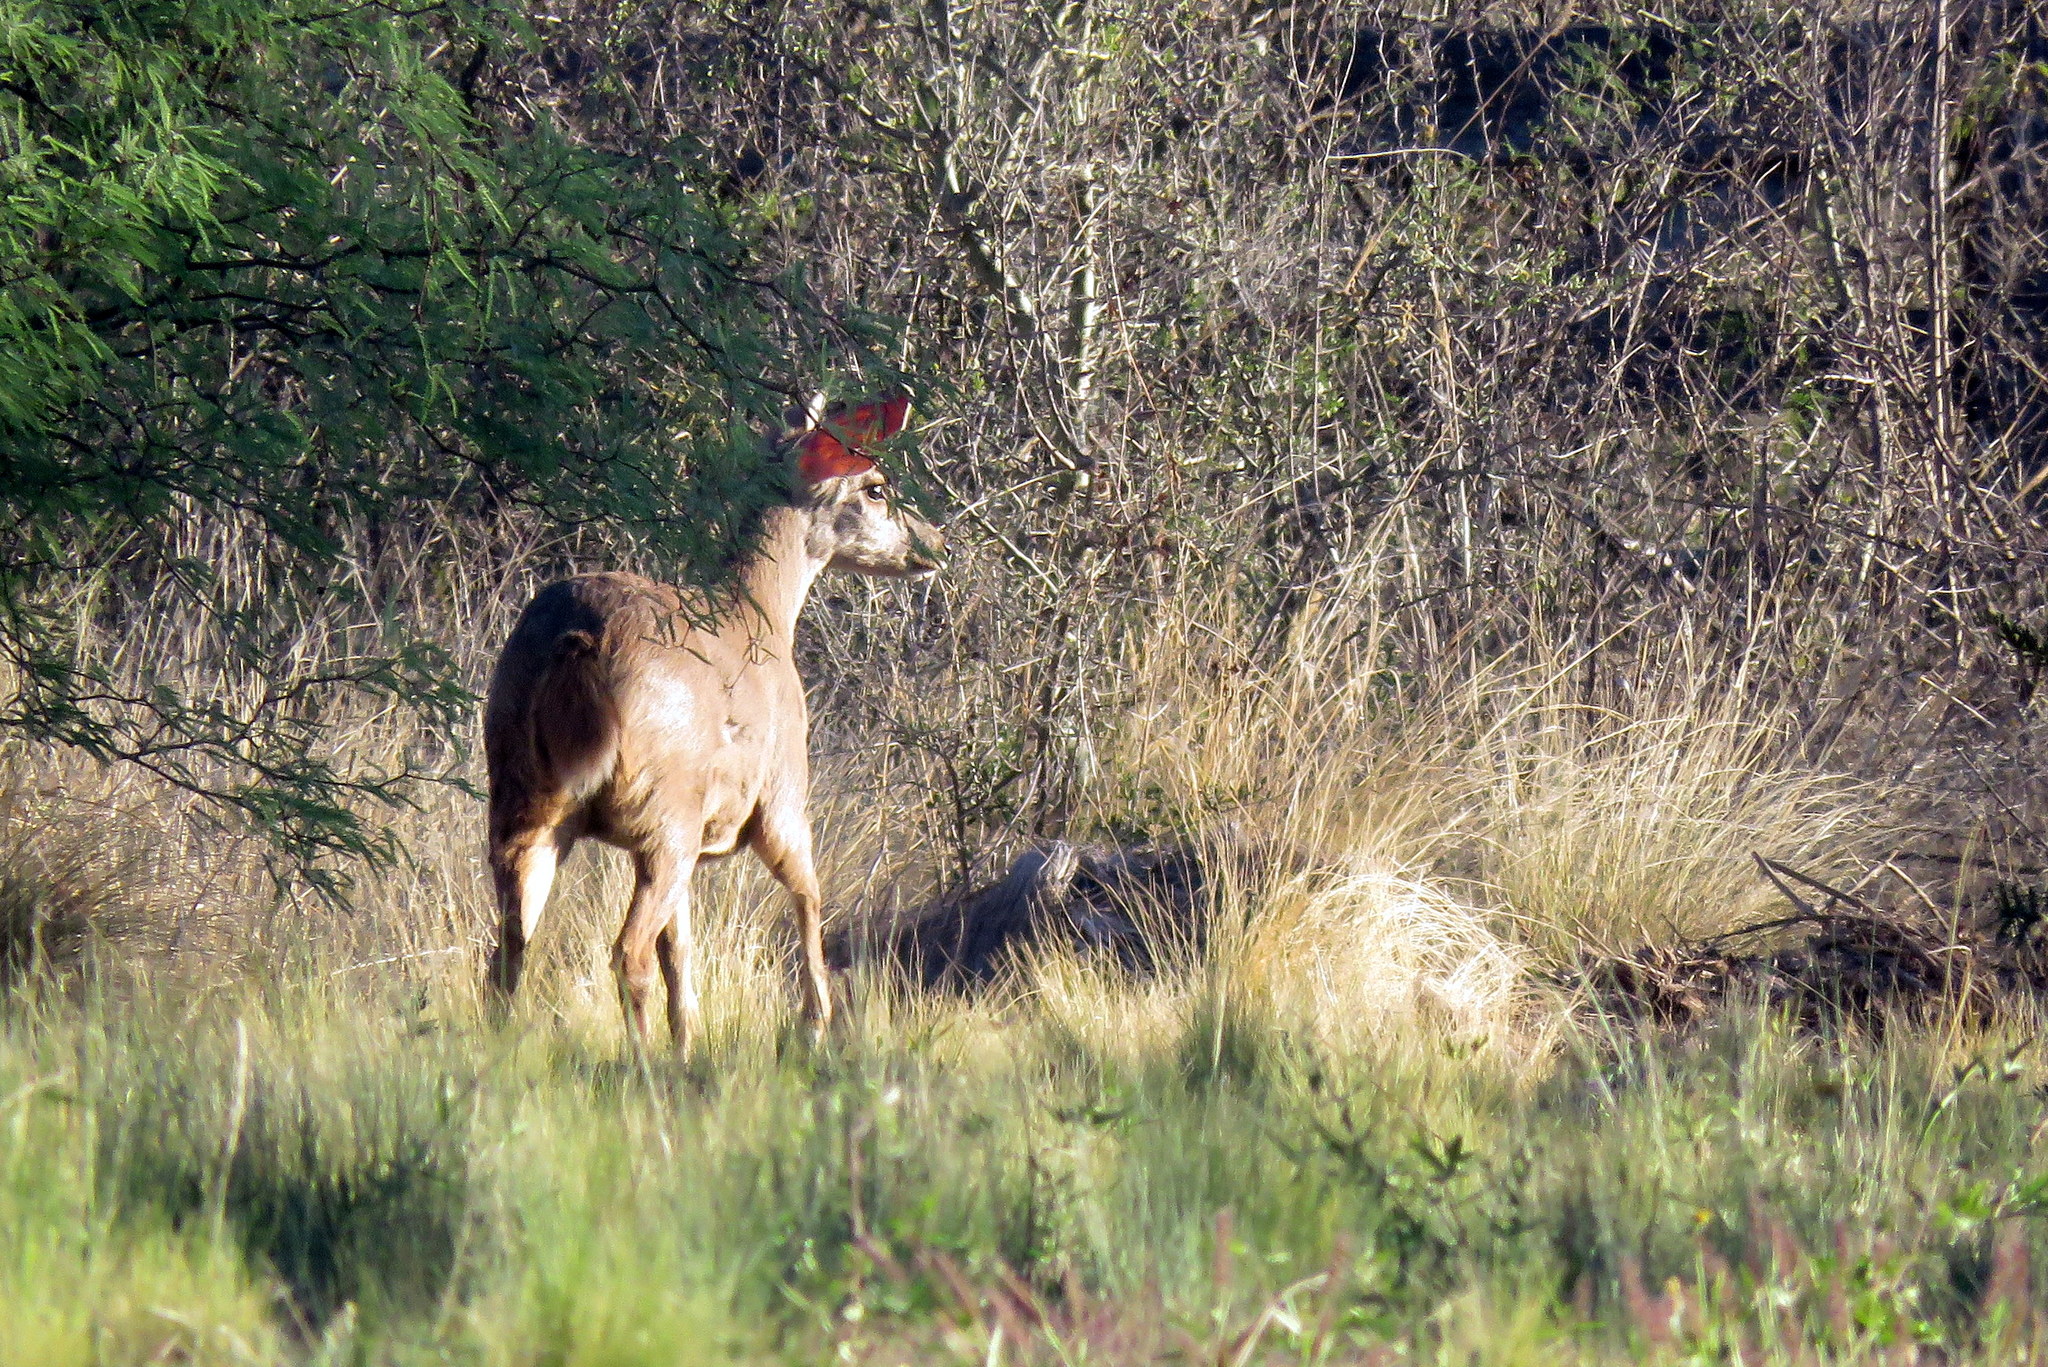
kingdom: Animalia
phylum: Chordata
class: Mammalia
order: Artiodactyla
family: Cervidae
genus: Mazama
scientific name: Mazama gouazoubira
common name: Gray brocket
